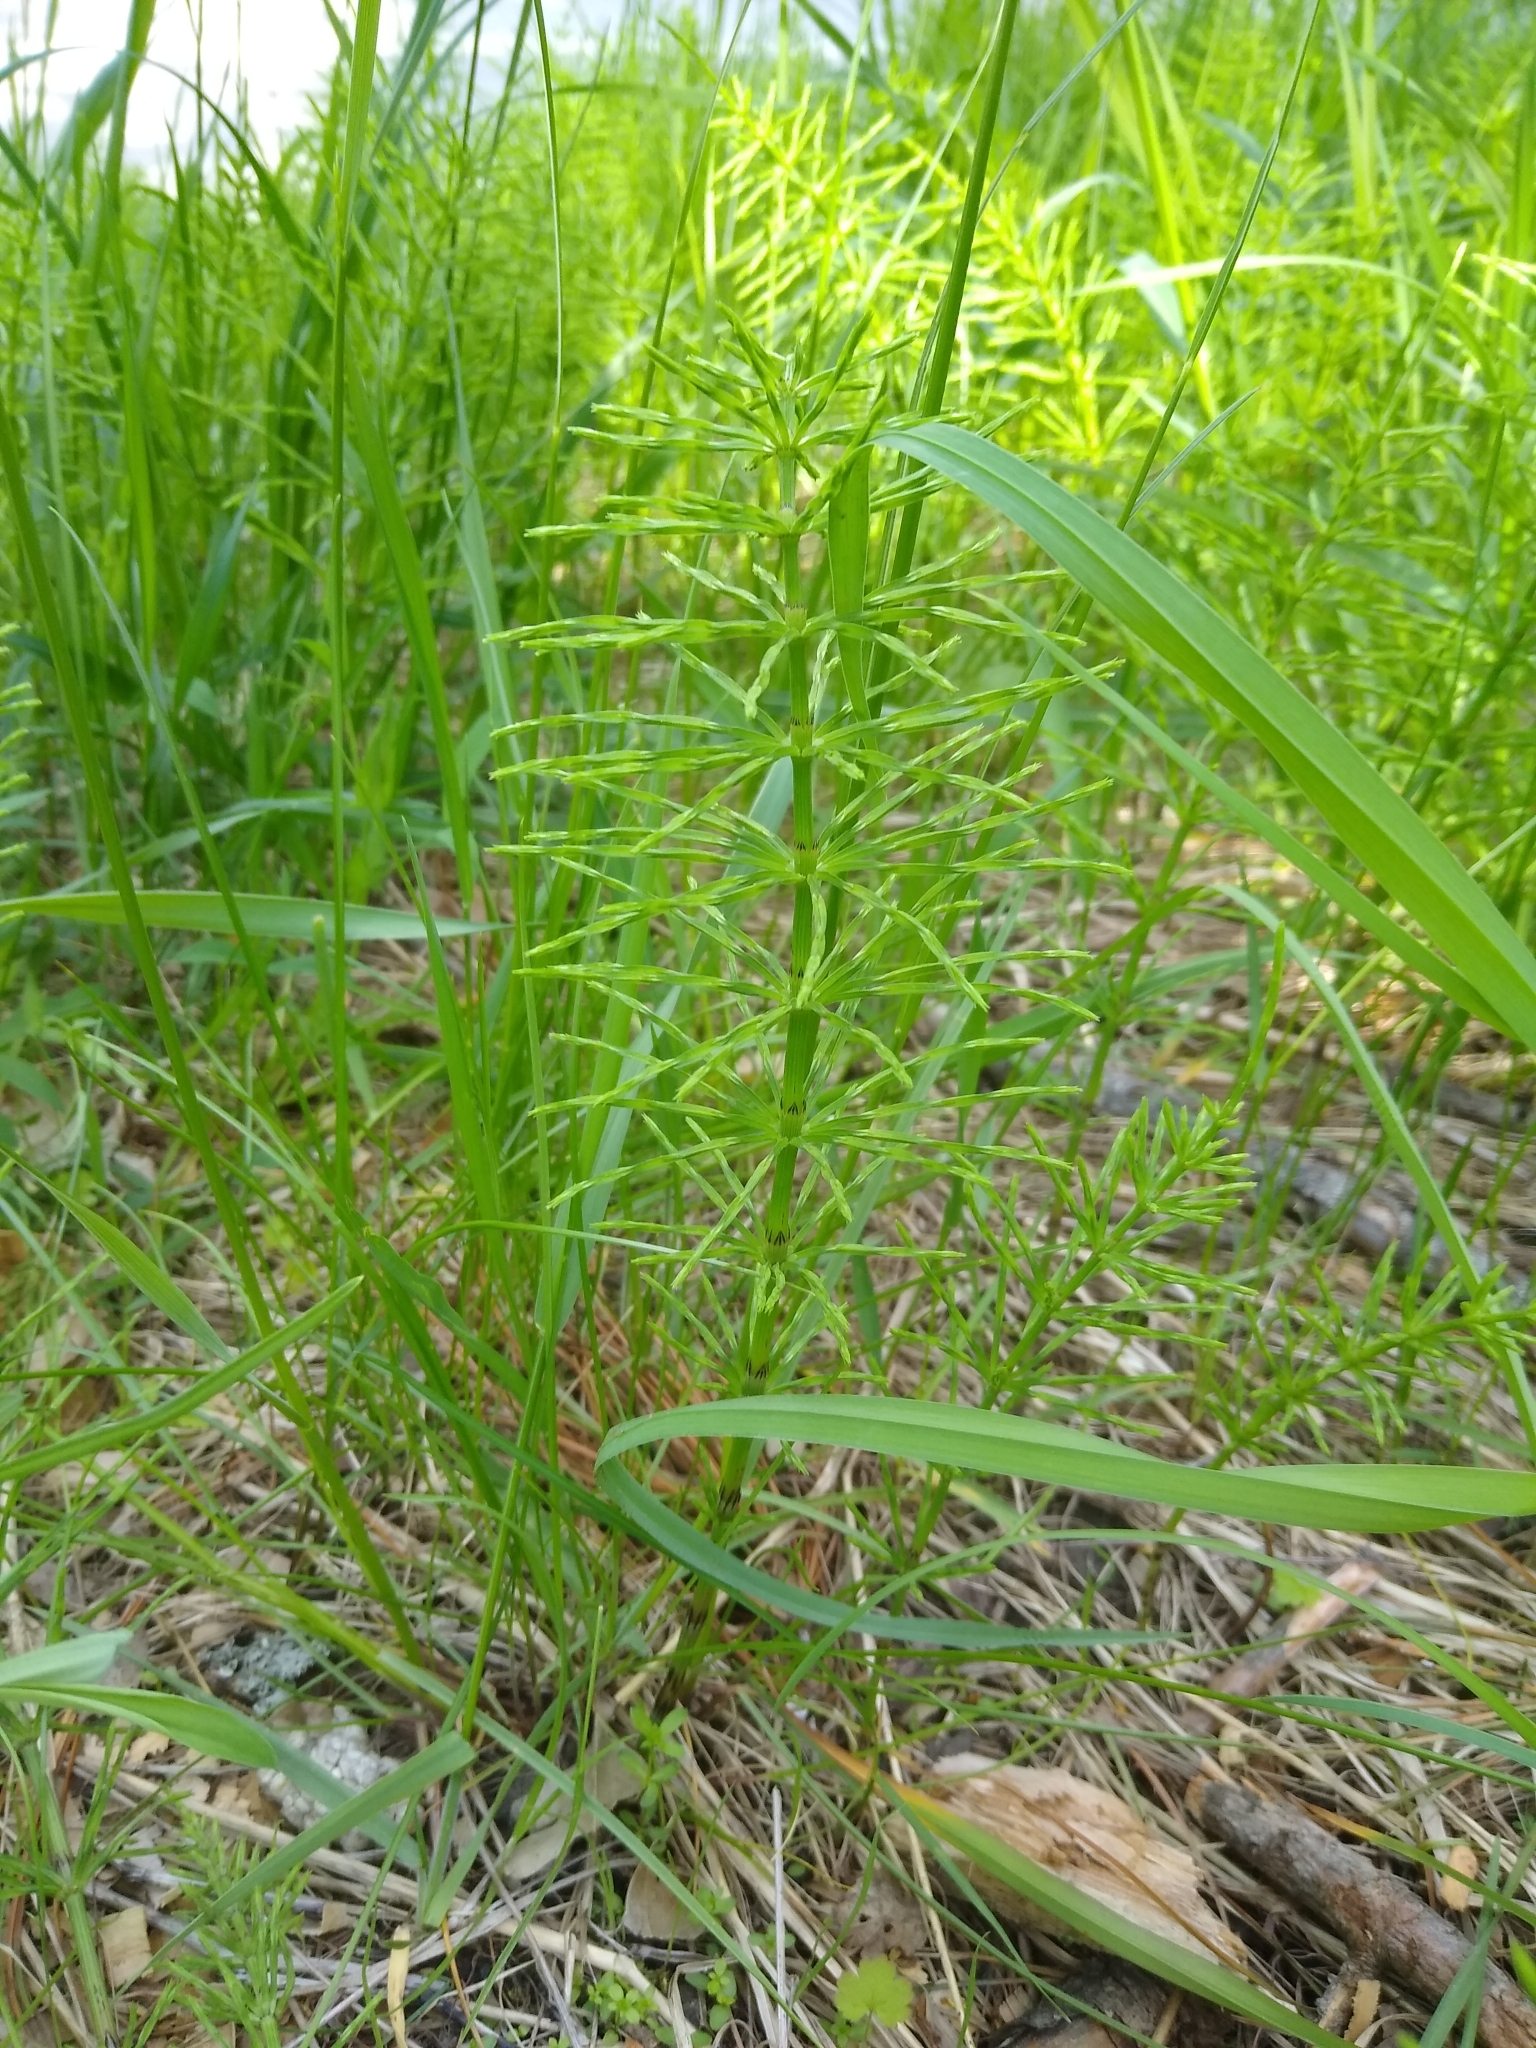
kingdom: Plantae
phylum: Tracheophyta
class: Polypodiopsida
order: Equisetales
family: Equisetaceae
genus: Equisetum
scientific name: Equisetum arvense
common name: Field horsetail
